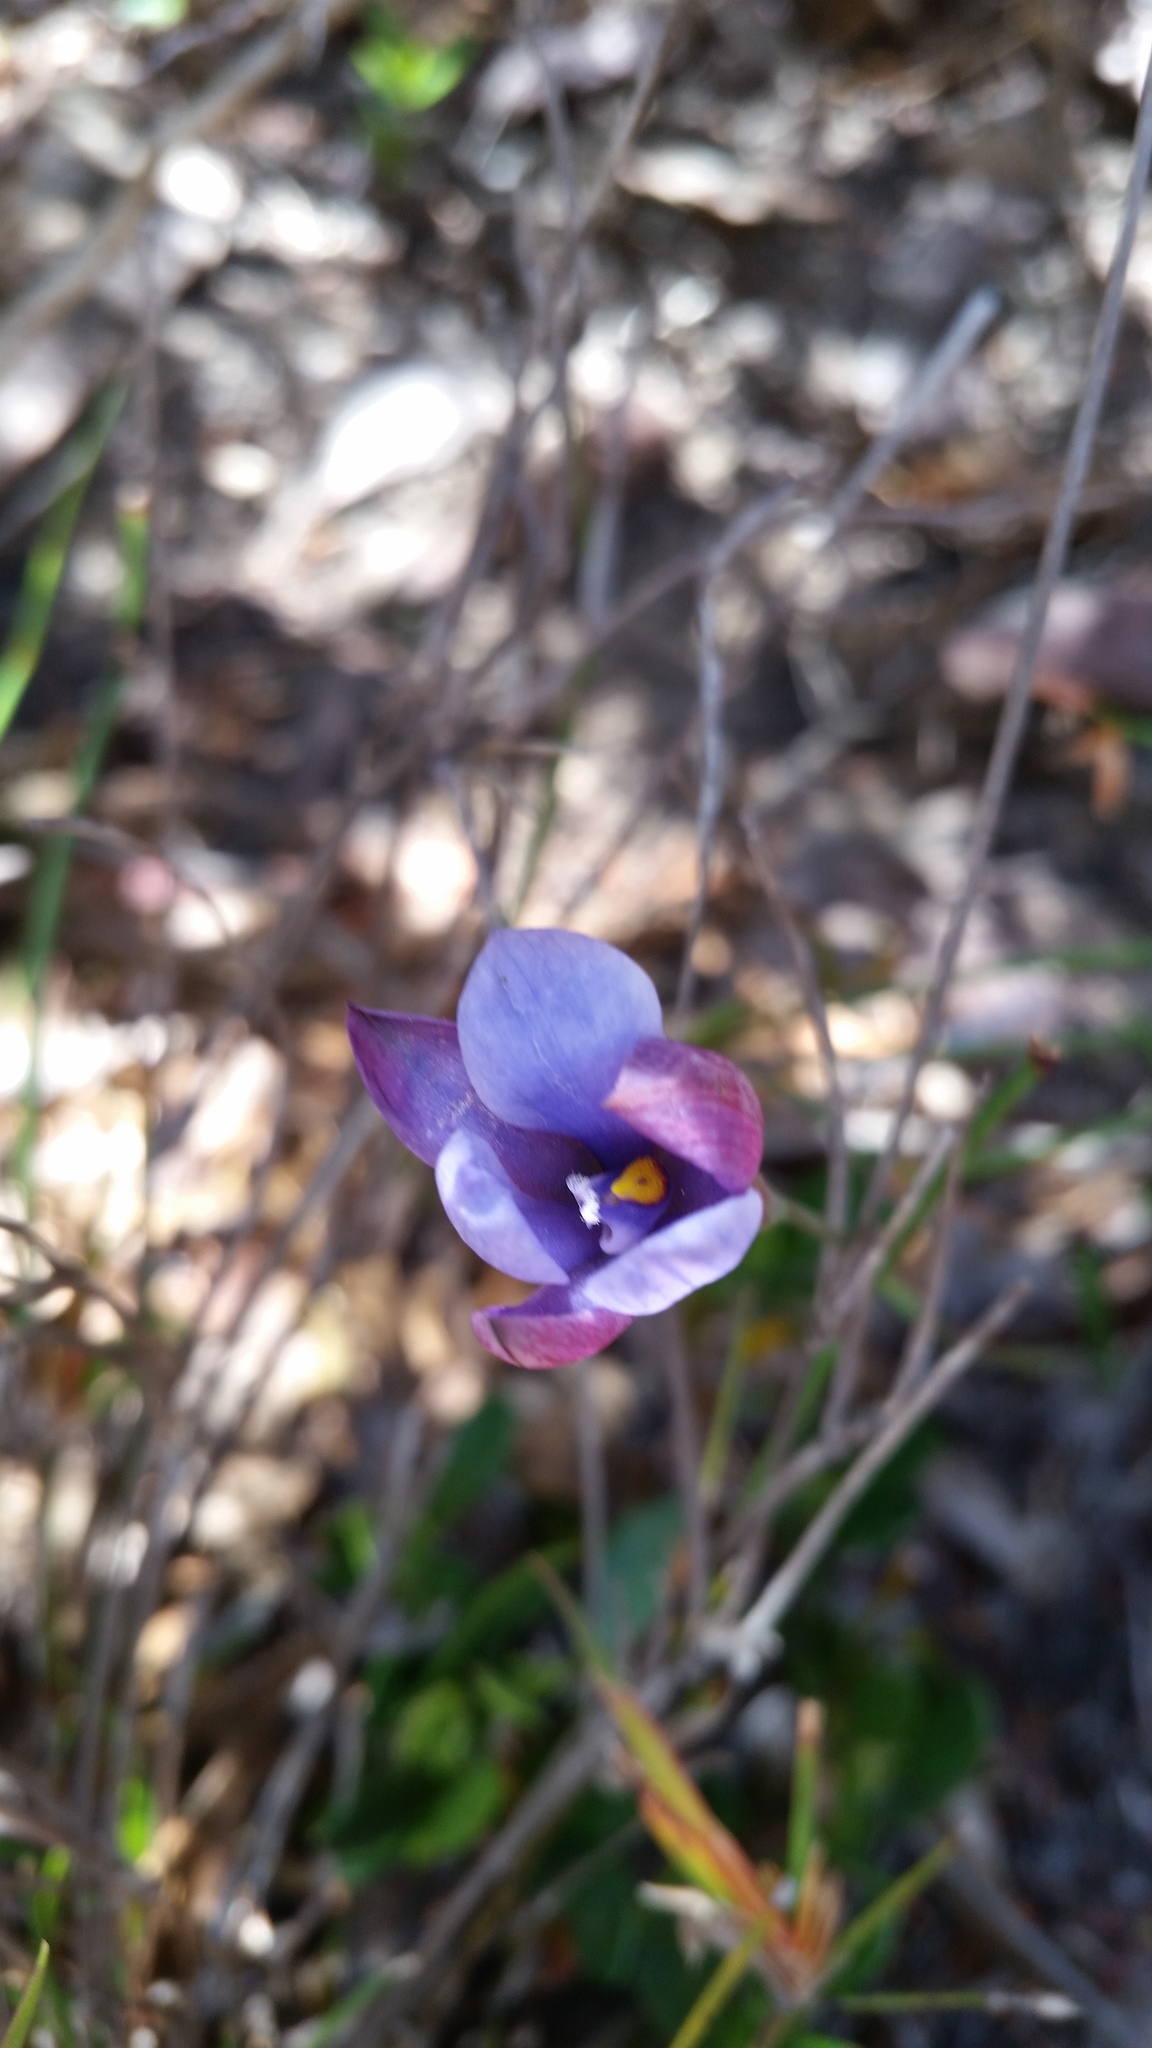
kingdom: Plantae
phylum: Tracheophyta
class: Liliopsida
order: Asparagales
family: Orchidaceae
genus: Thelymitra
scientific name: Thelymitra cornicina
